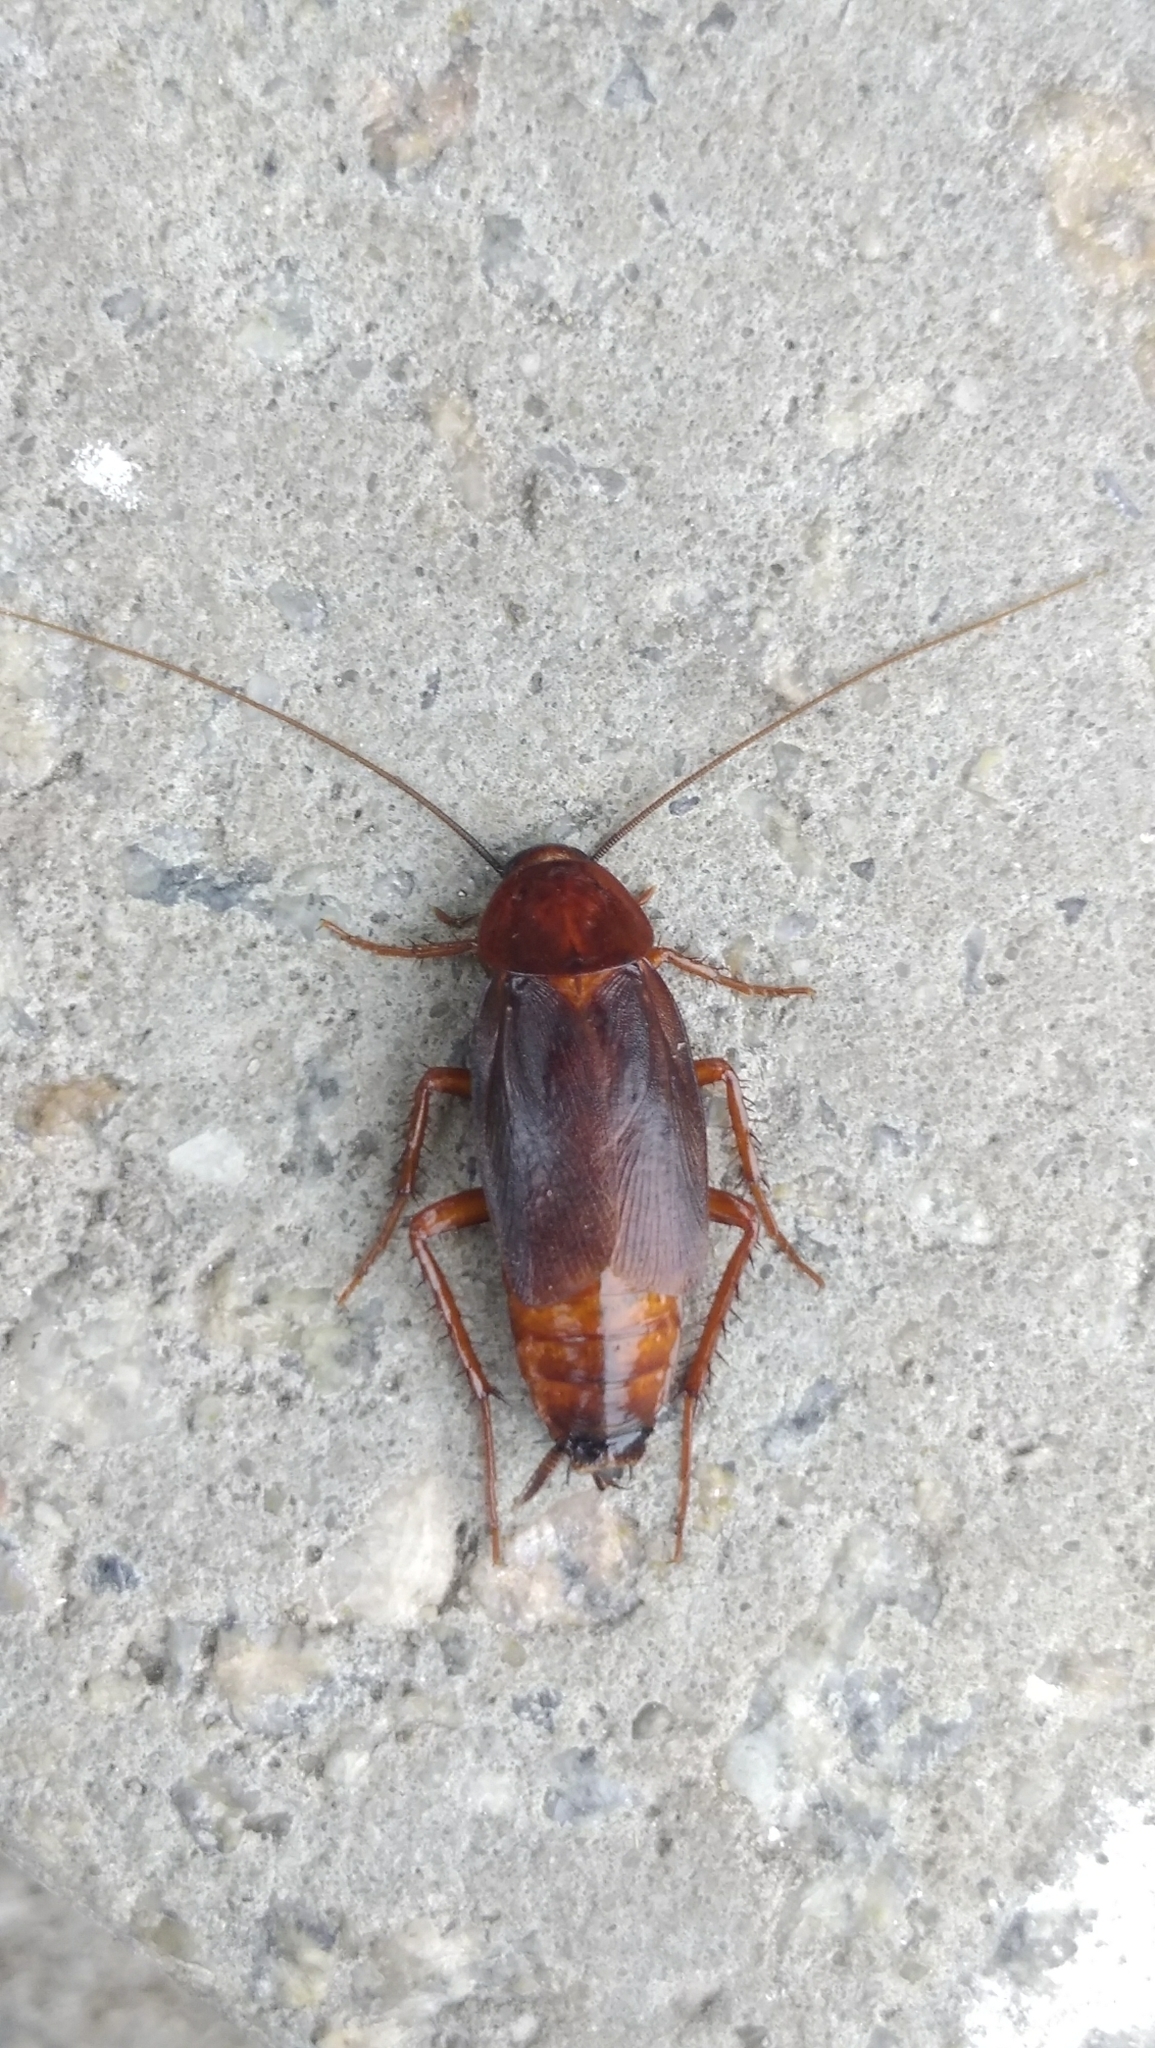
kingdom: Animalia
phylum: Arthropoda
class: Insecta
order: Blattodea
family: Blattidae
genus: Blatta
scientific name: Blatta orientalis
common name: Oriental cockroach
